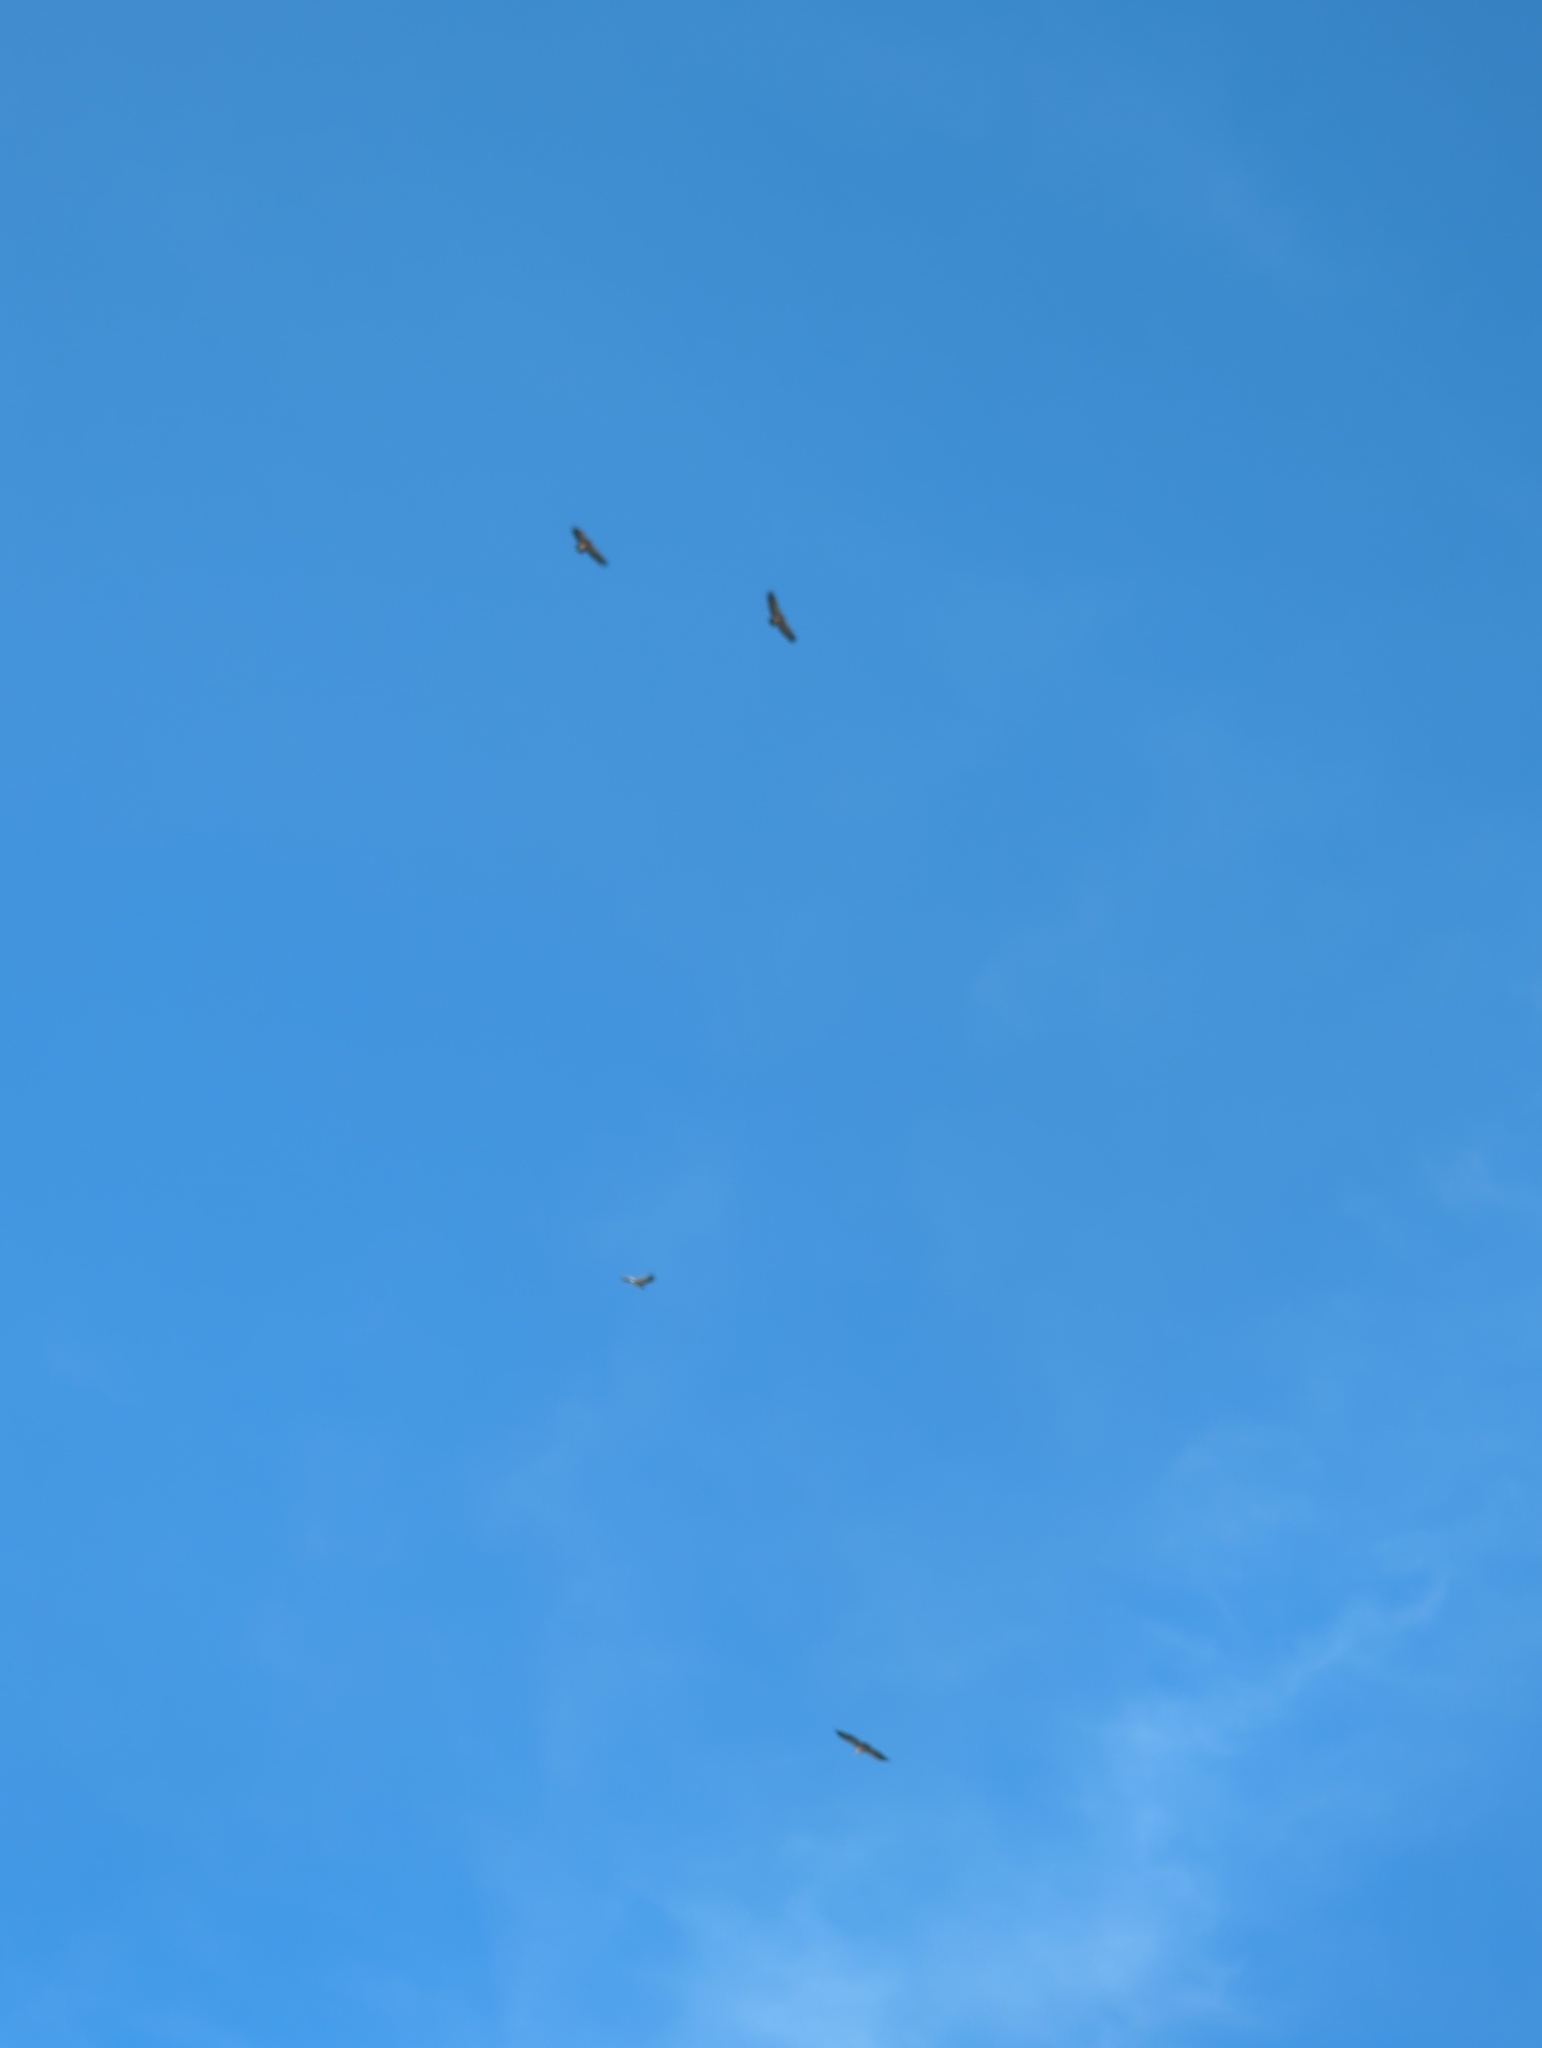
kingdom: Animalia
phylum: Chordata
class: Aves
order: Accipitriformes
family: Accipitridae
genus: Gyps
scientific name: Gyps fulvus
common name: Griffon vulture
